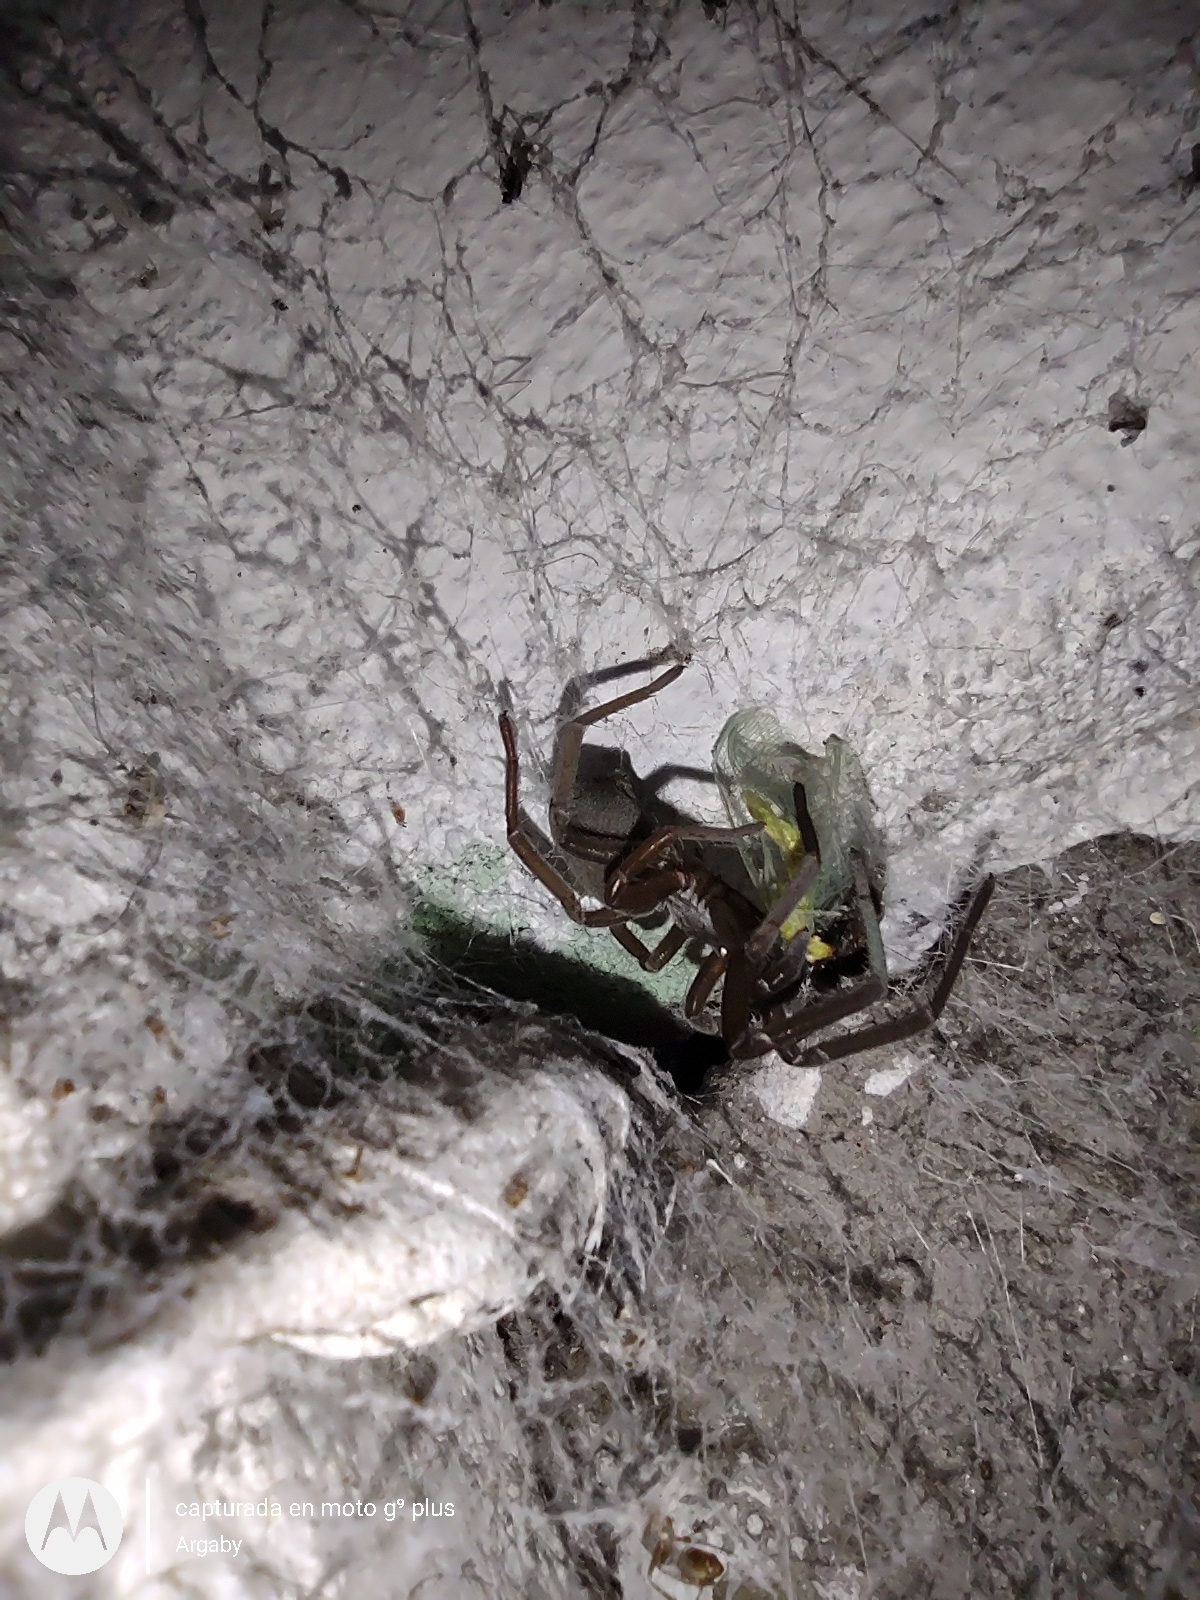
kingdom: Animalia
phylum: Arthropoda
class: Arachnida
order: Araneae
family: Filistatidae
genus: Kukulcania
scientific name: Kukulcania hibernalis
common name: Crevice weaver
